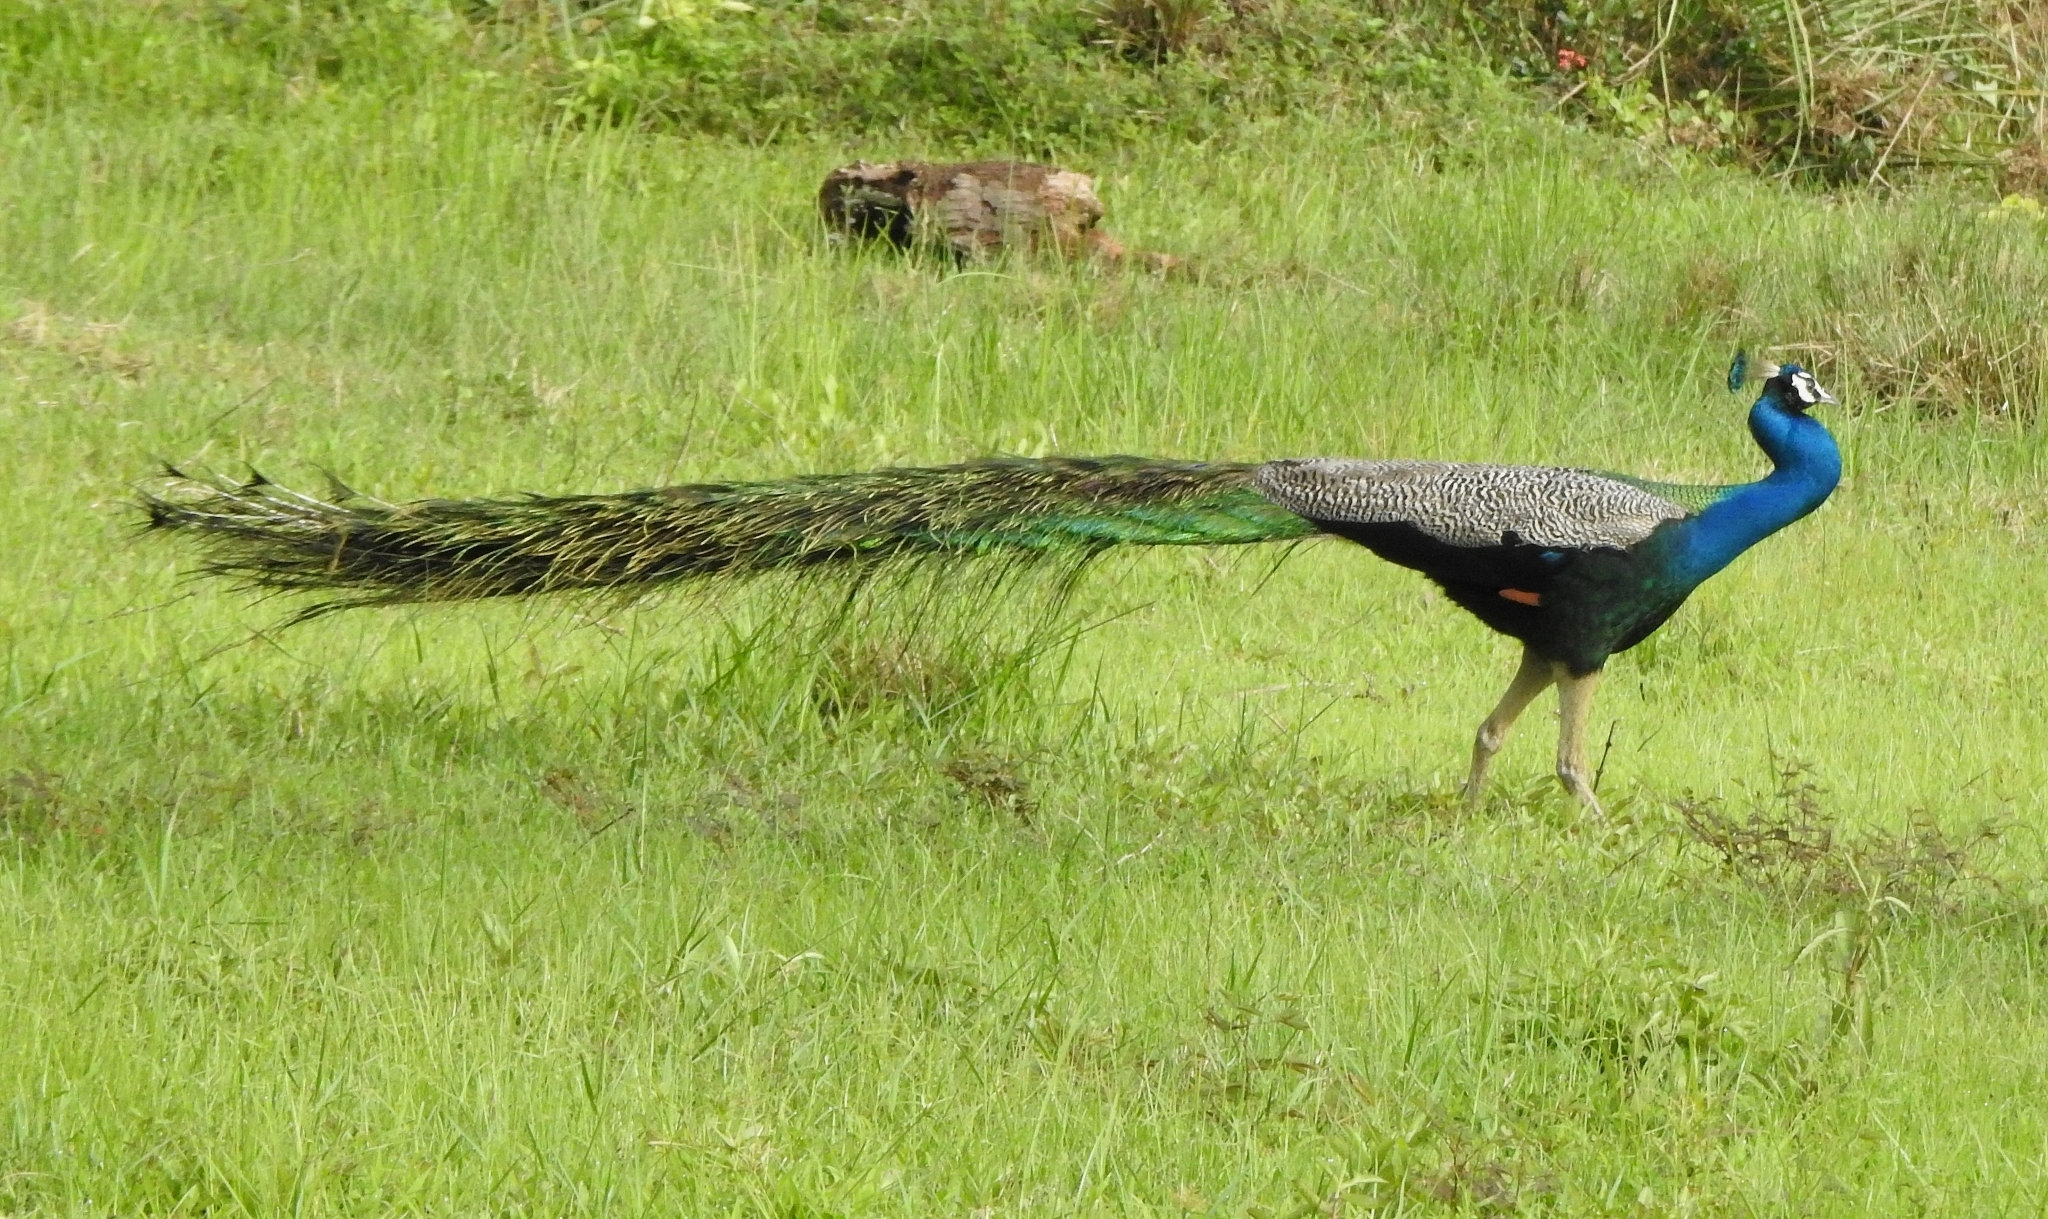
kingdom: Animalia
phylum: Chordata
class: Aves
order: Galliformes
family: Phasianidae
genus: Pavo
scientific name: Pavo cristatus
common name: Indian peafowl
